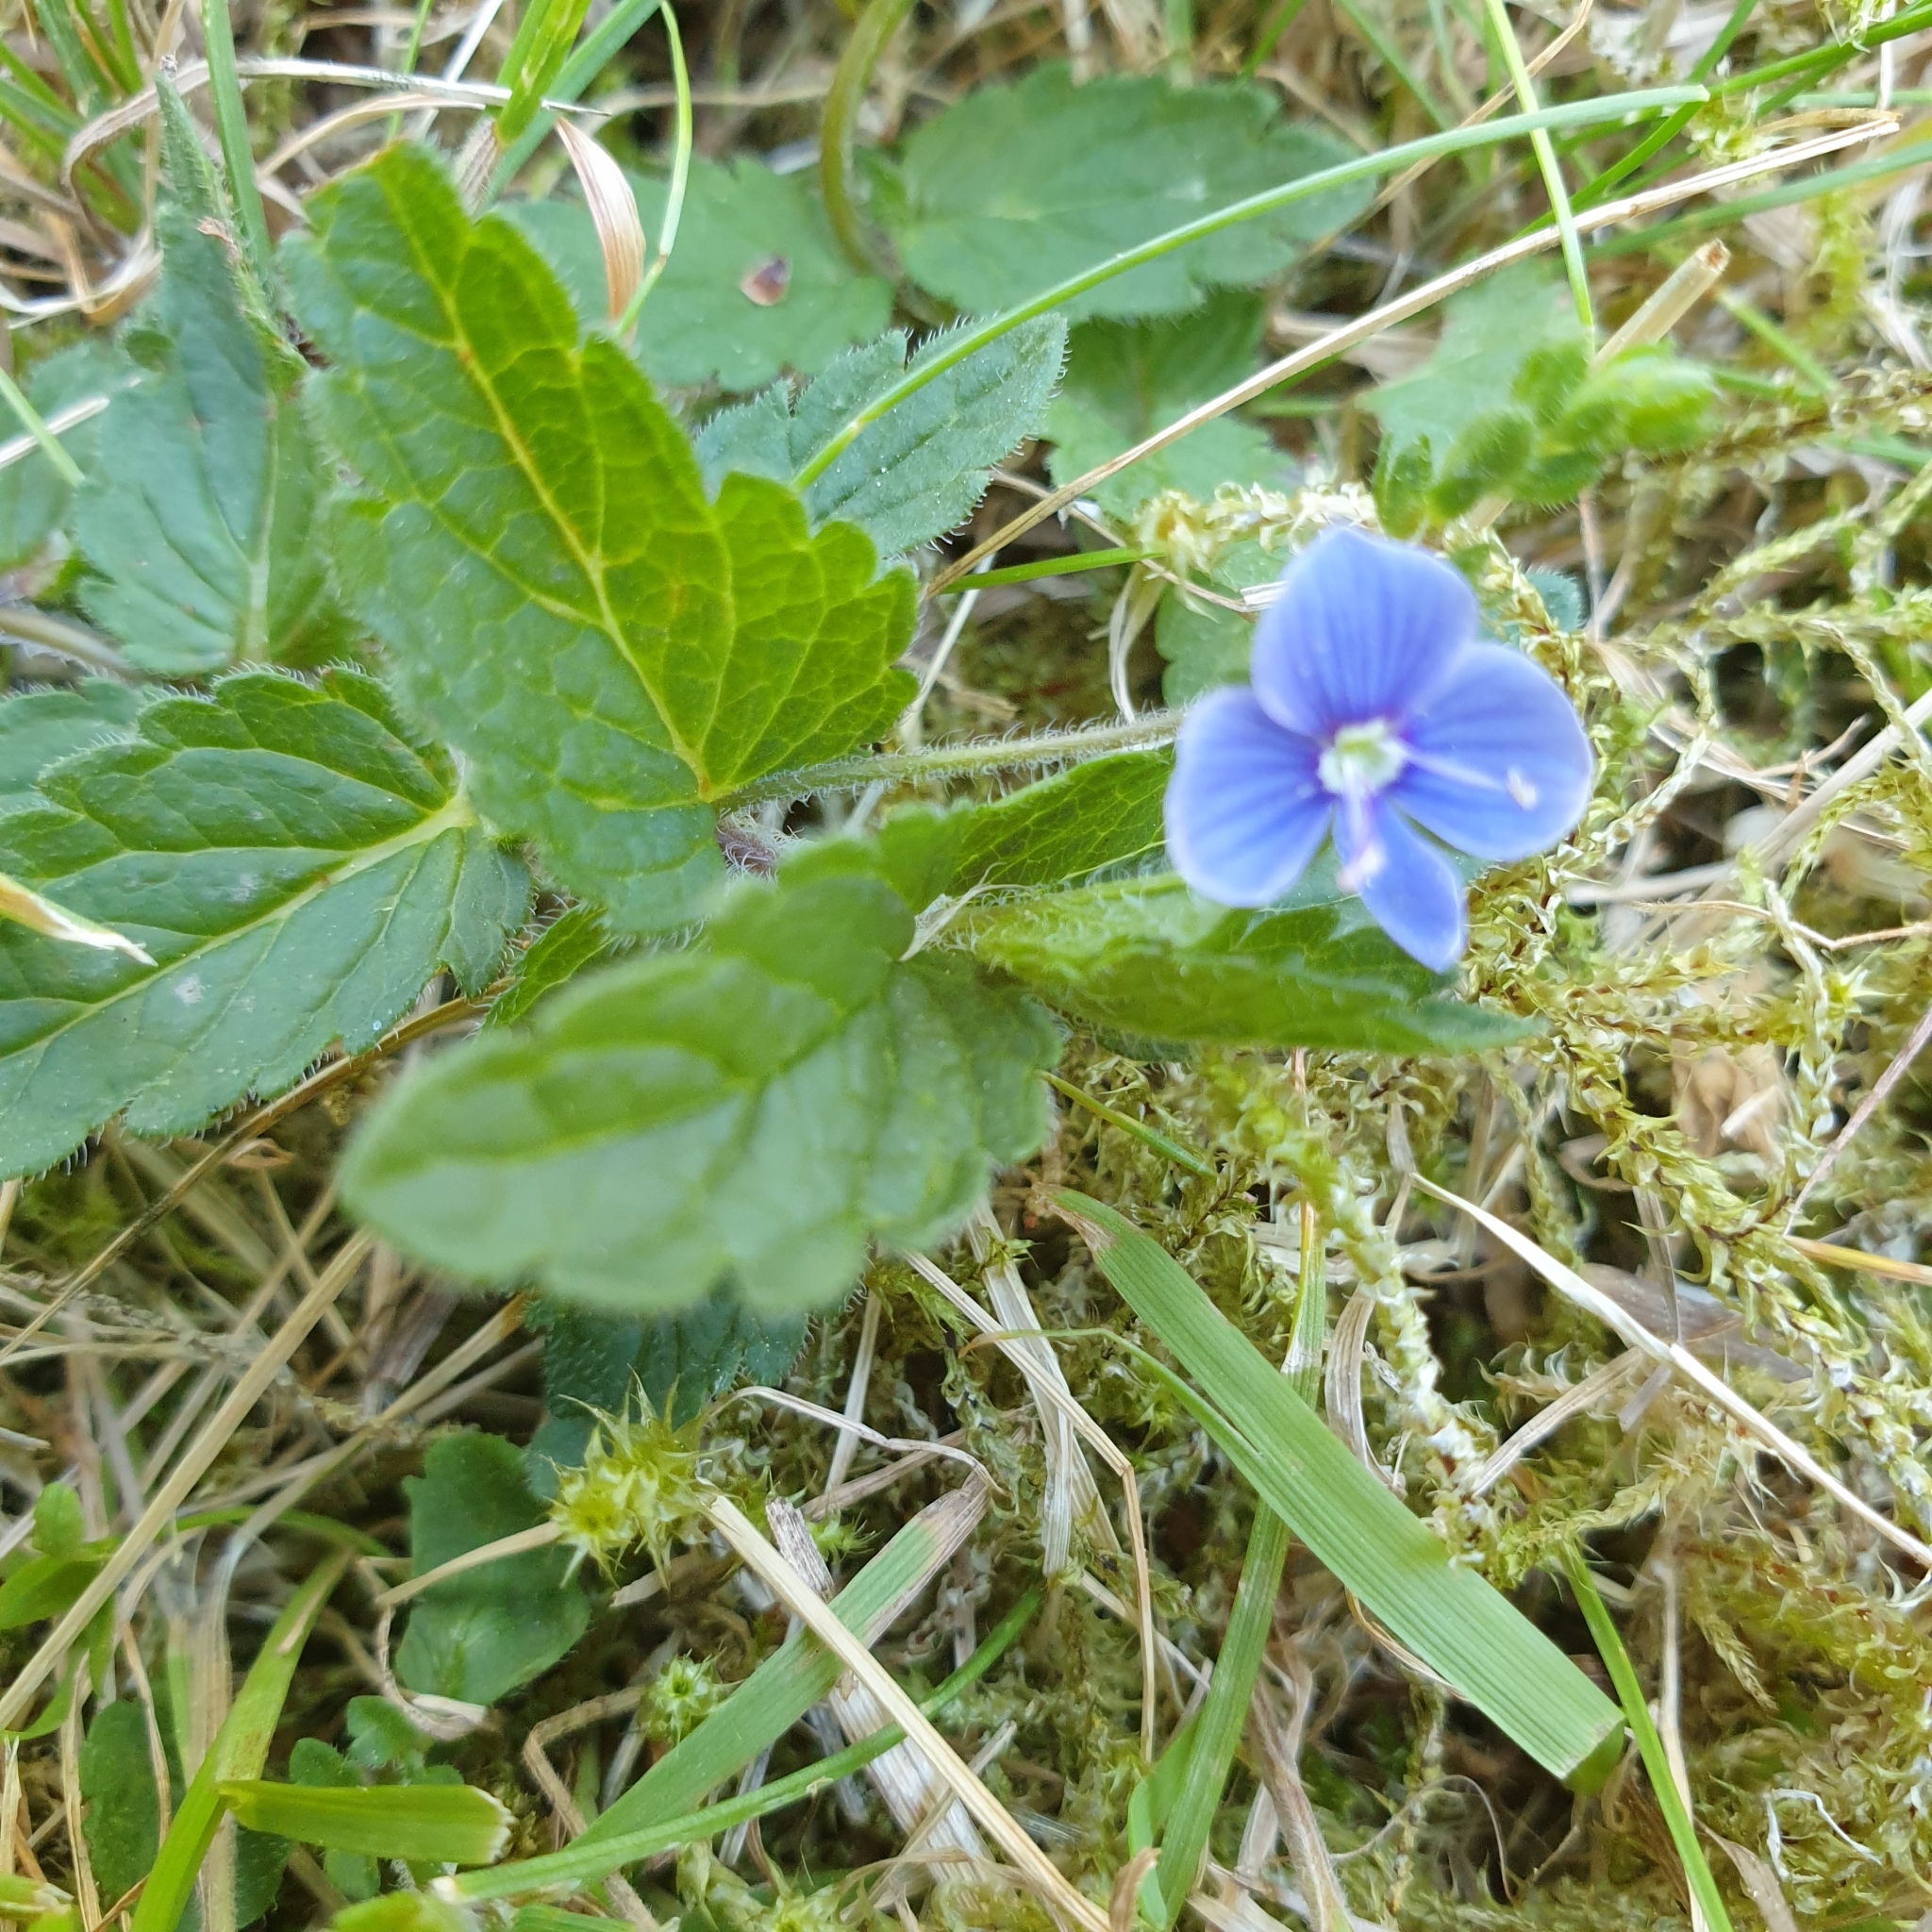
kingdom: Plantae
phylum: Tracheophyta
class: Magnoliopsida
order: Lamiales
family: Plantaginaceae
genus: Veronica
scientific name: Veronica chamaedrys
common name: Germander speedwell
